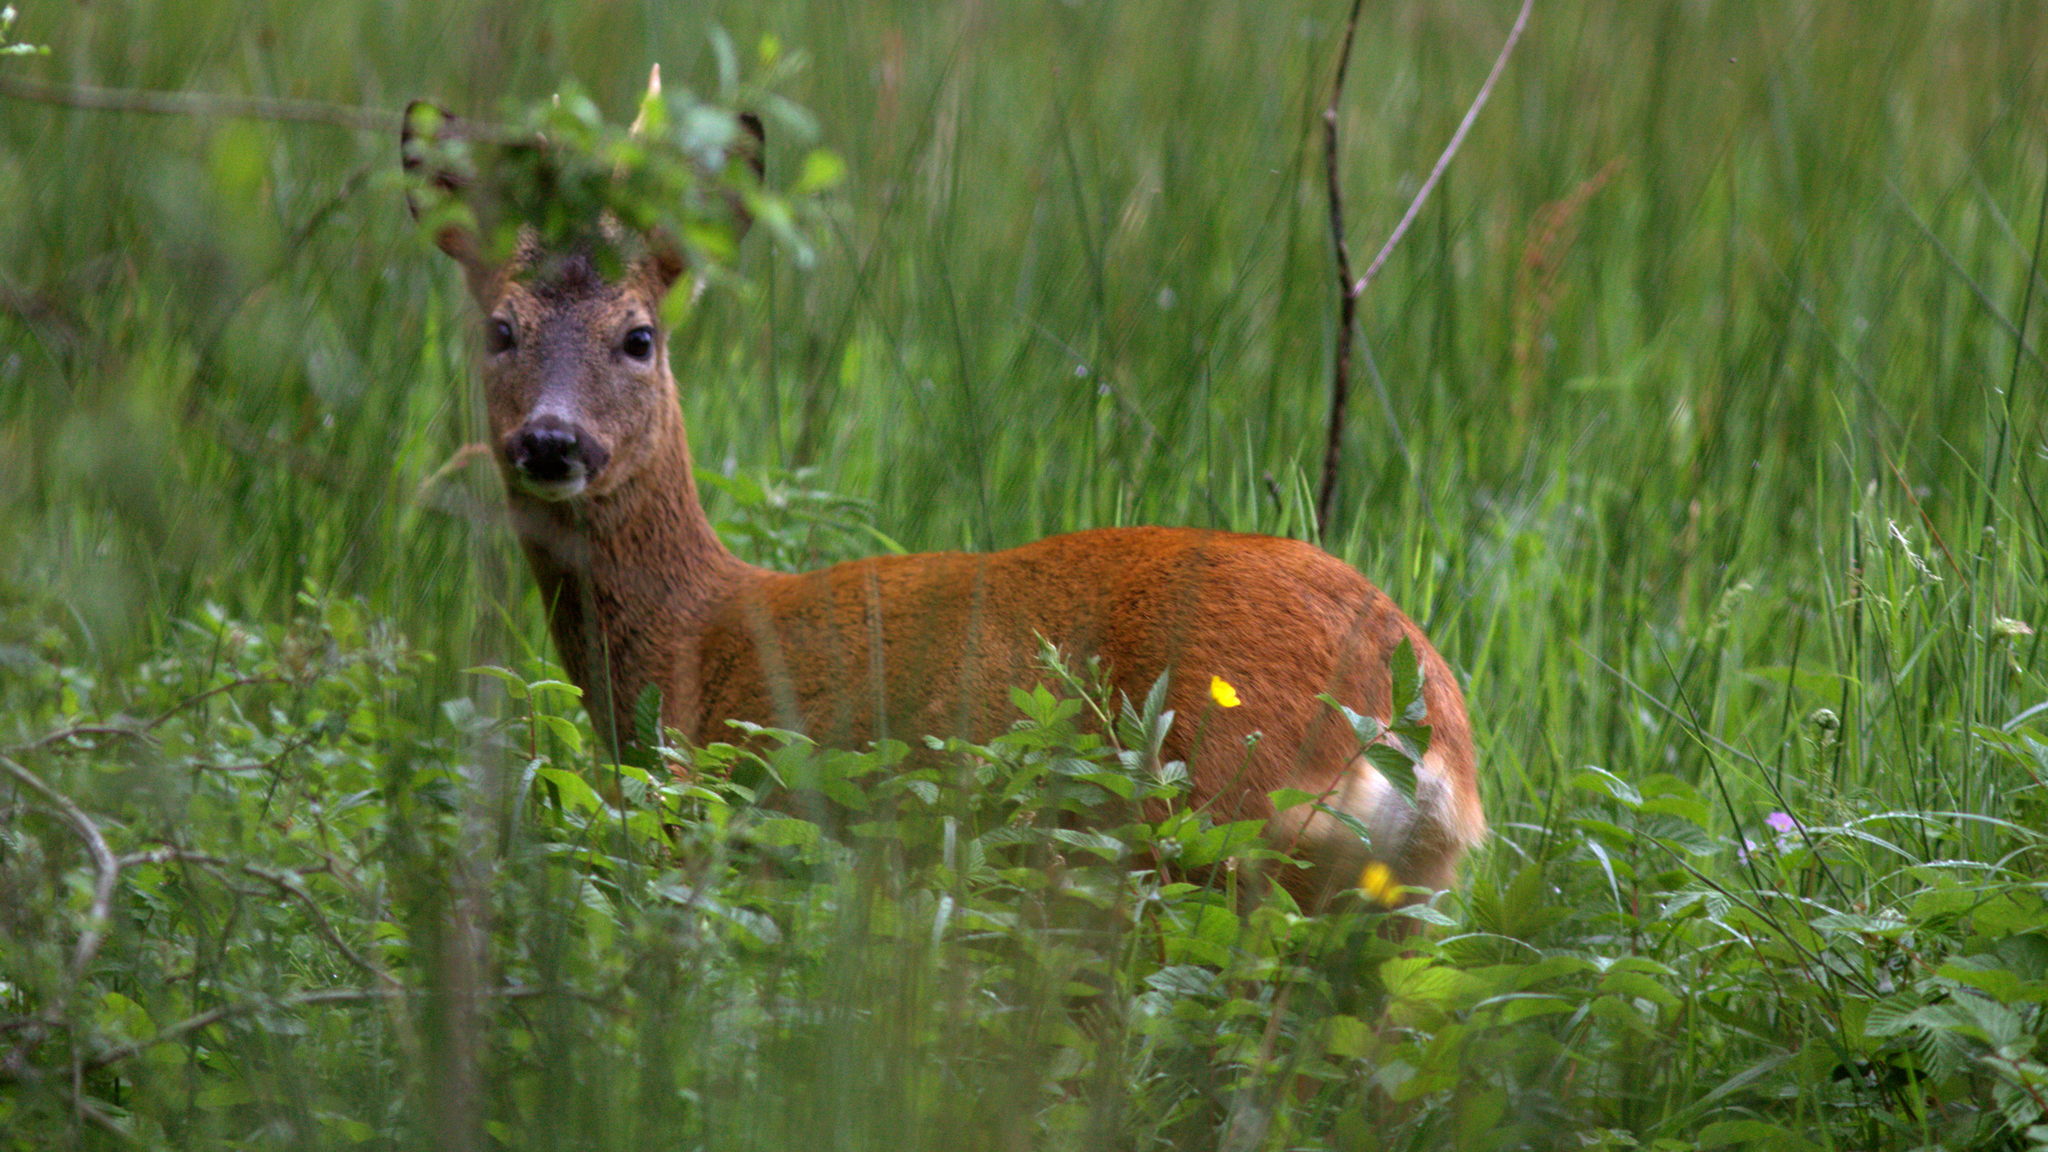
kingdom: Animalia
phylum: Chordata
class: Mammalia
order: Artiodactyla
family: Cervidae
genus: Capreolus
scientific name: Capreolus capreolus
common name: Western roe deer
